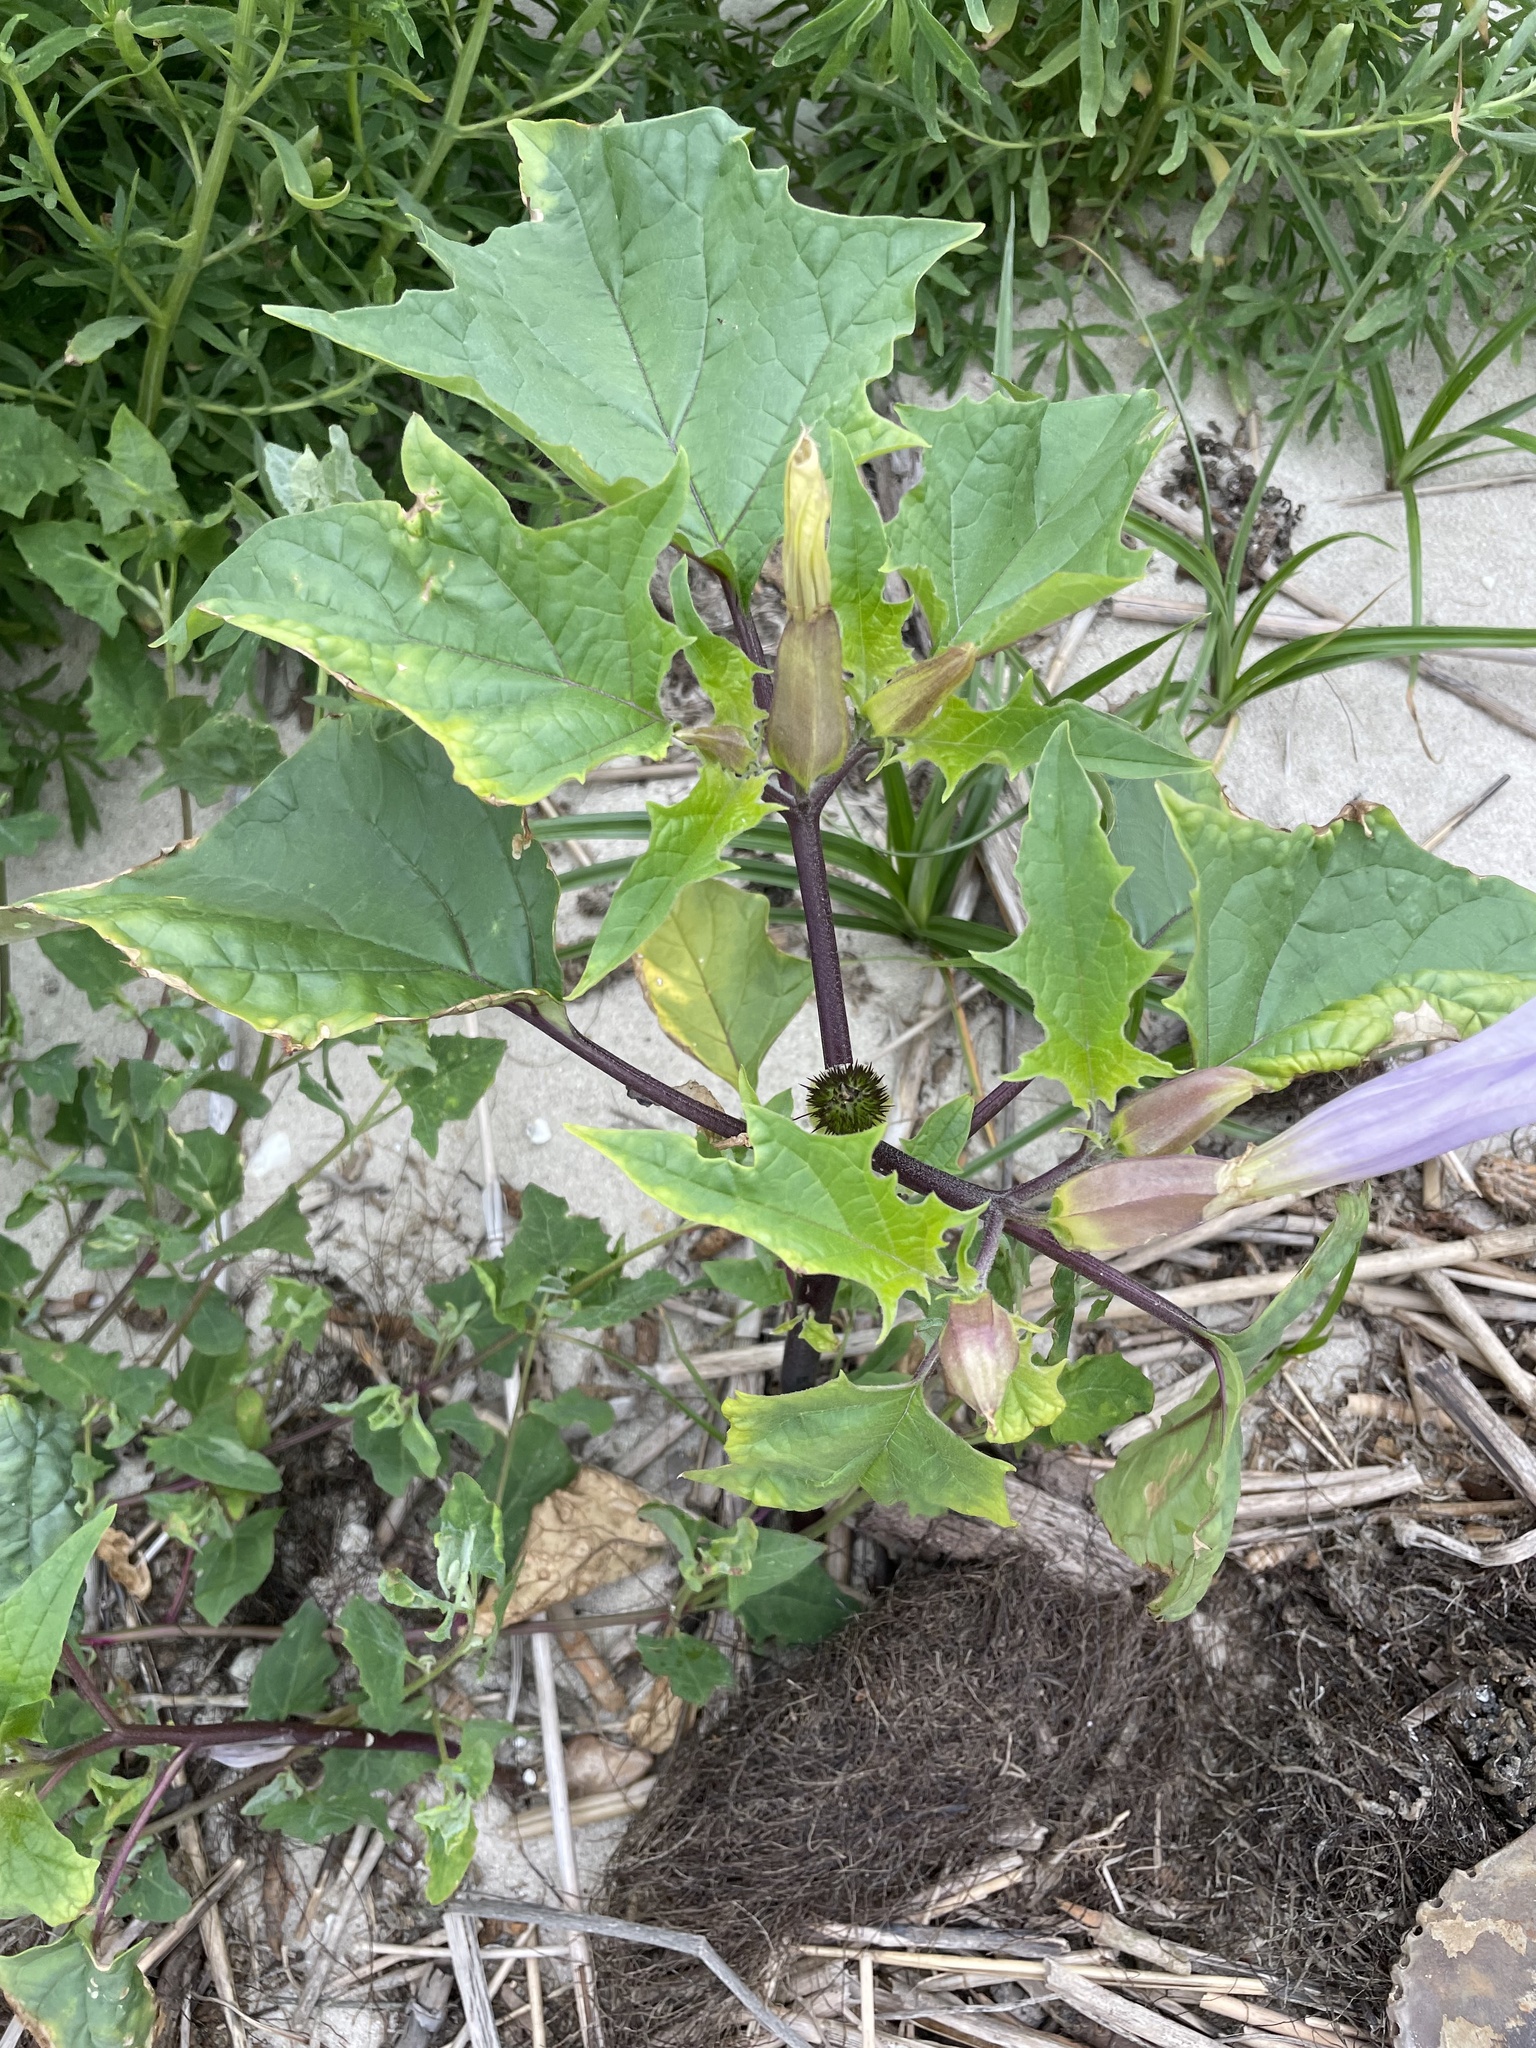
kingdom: Plantae
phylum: Tracheophyta
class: Magnoliopsida
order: Solanales
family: Solanaceae
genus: Datura
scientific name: Datura stramonium
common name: Thorn-apple
